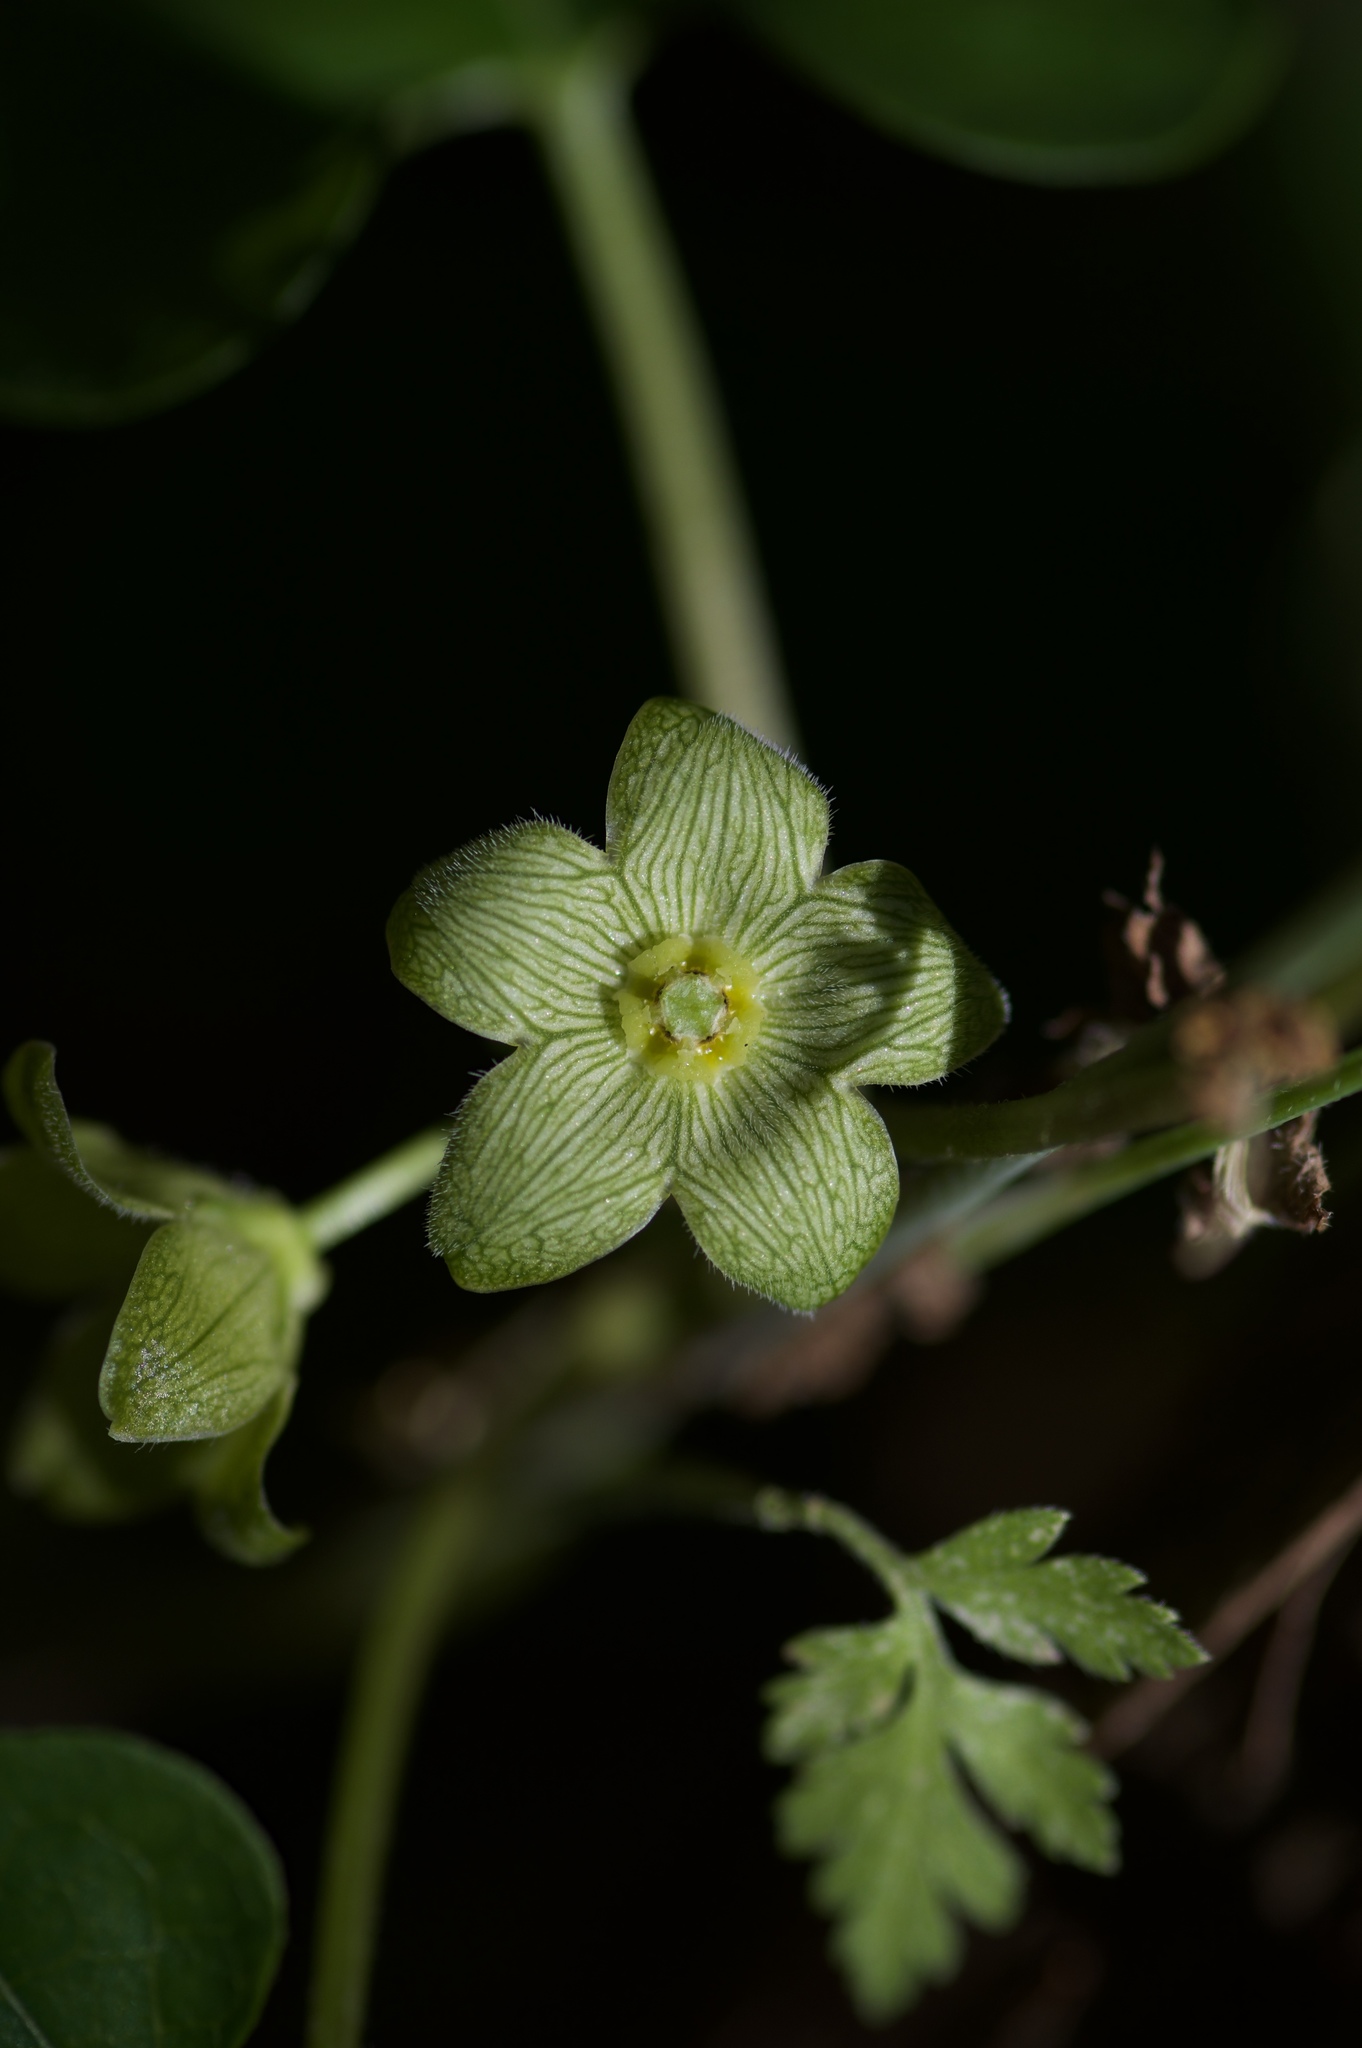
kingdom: Plantae
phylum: Tracheophyta
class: Magnoliopsida
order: Gentianales
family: Apocynaceae
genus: Matelea
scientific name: Matelea edwardsensis
